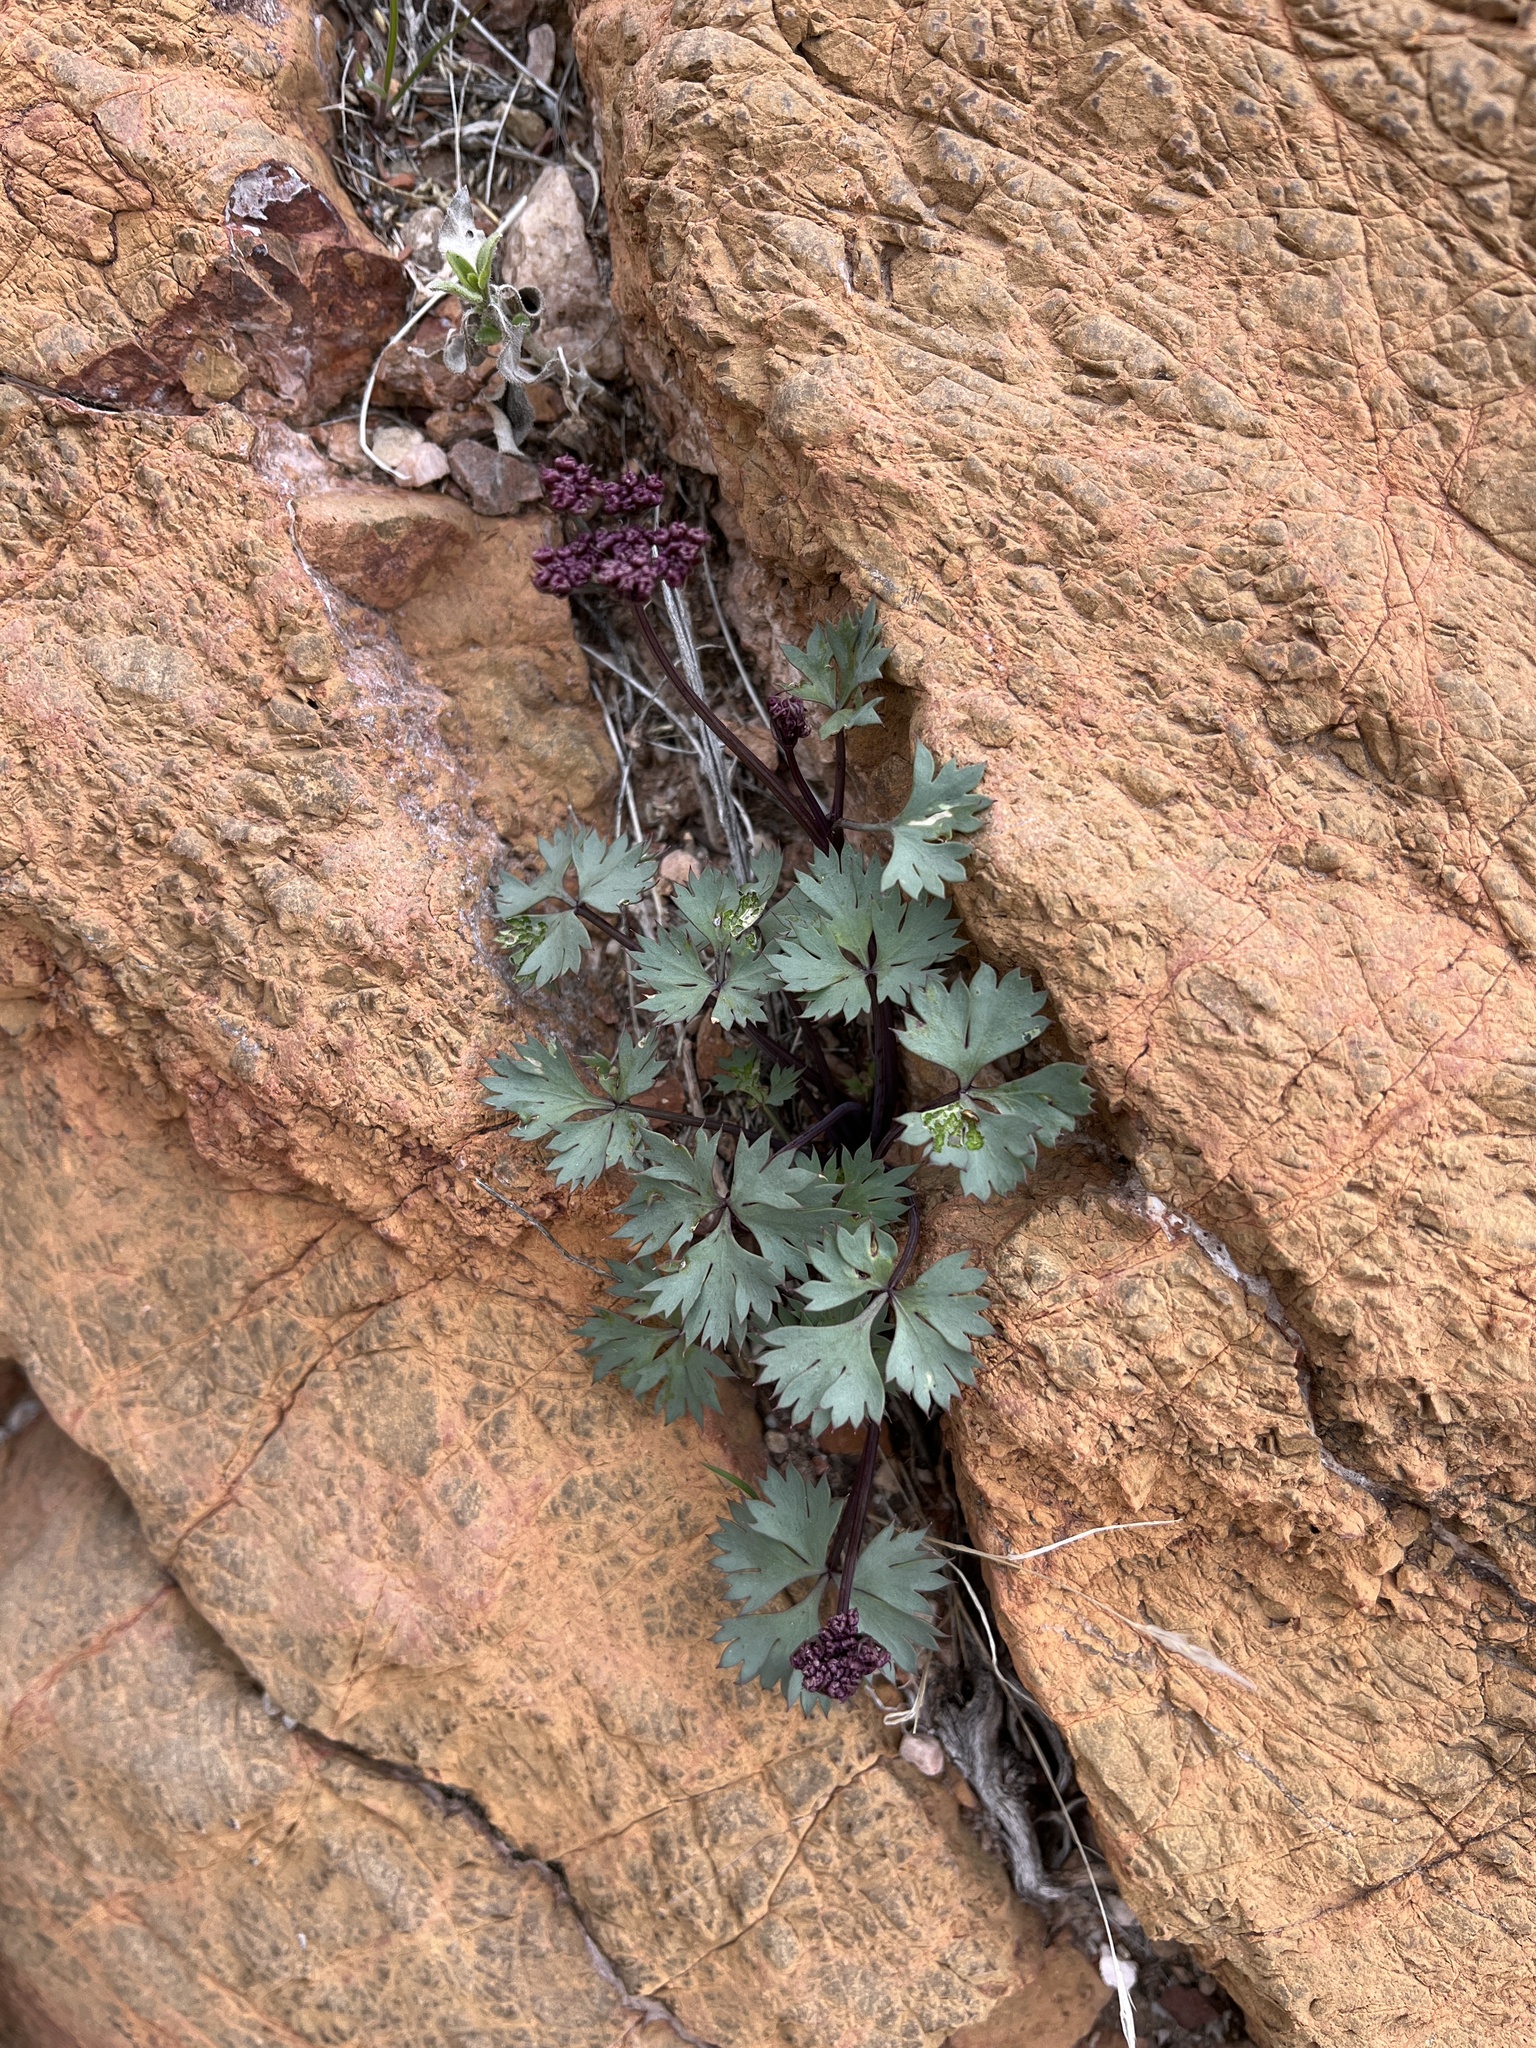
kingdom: Plantae
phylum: Tracheophyta
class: Magnoliopsida
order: Apiales
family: Apiaceae
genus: Cymopterus
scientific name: Cymopterus gilmanii
